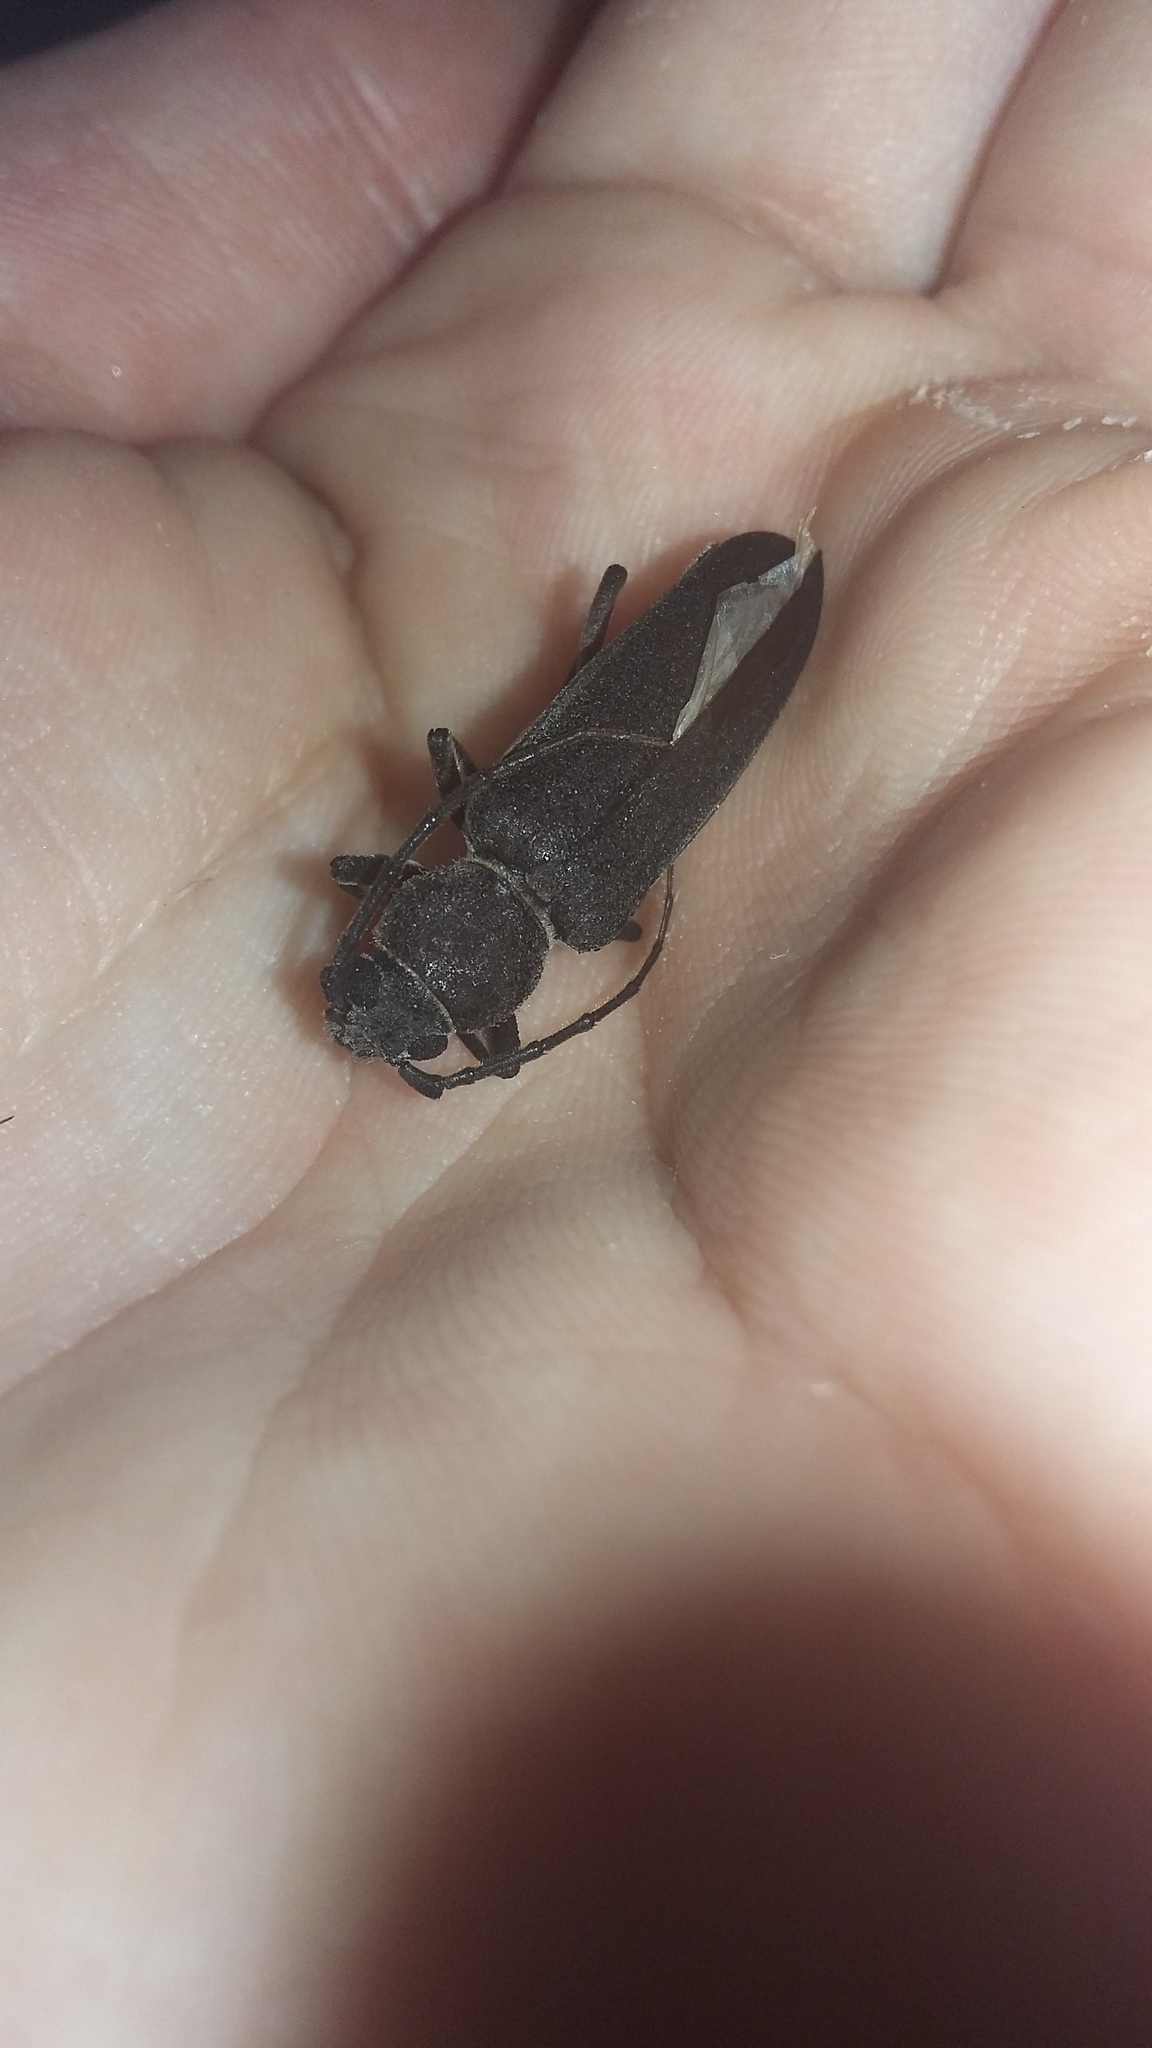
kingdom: Animalia
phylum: Arthropoda
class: Insecta
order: Coleoptera
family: Cerambycidae
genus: Arhopalus
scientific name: Arhopalus ferus
